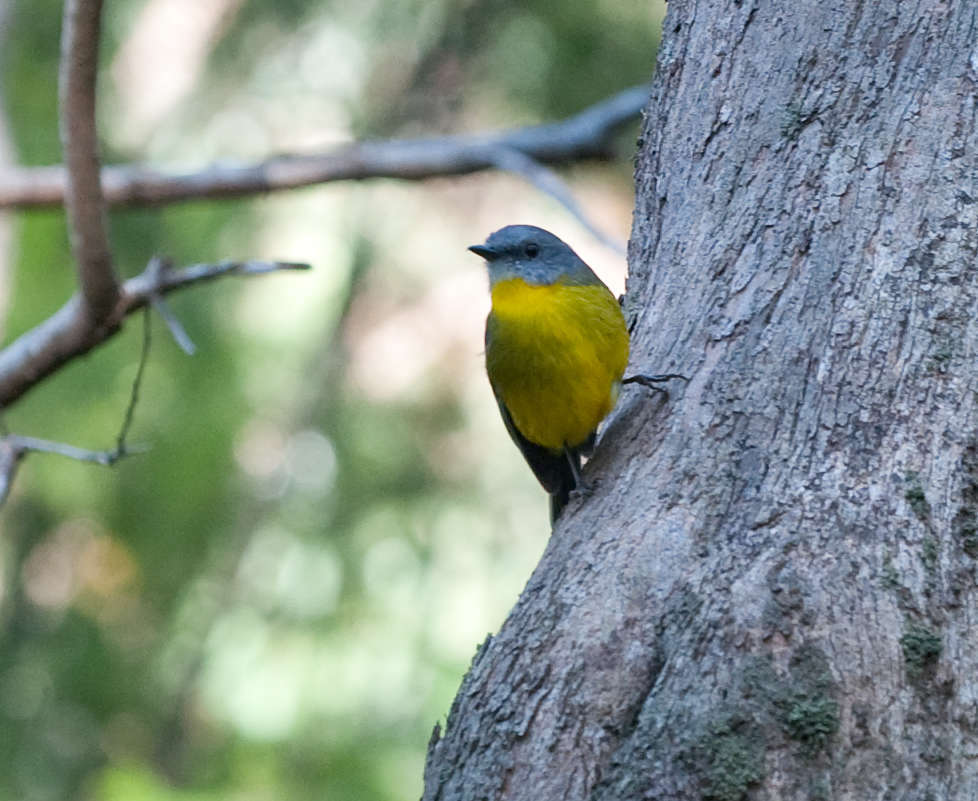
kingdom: Animalia
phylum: Chordata
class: Aves
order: Passeriformes
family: Petroicidae
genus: Eopsaltria
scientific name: Eopsaltria australis
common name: Eastern yellow robin
